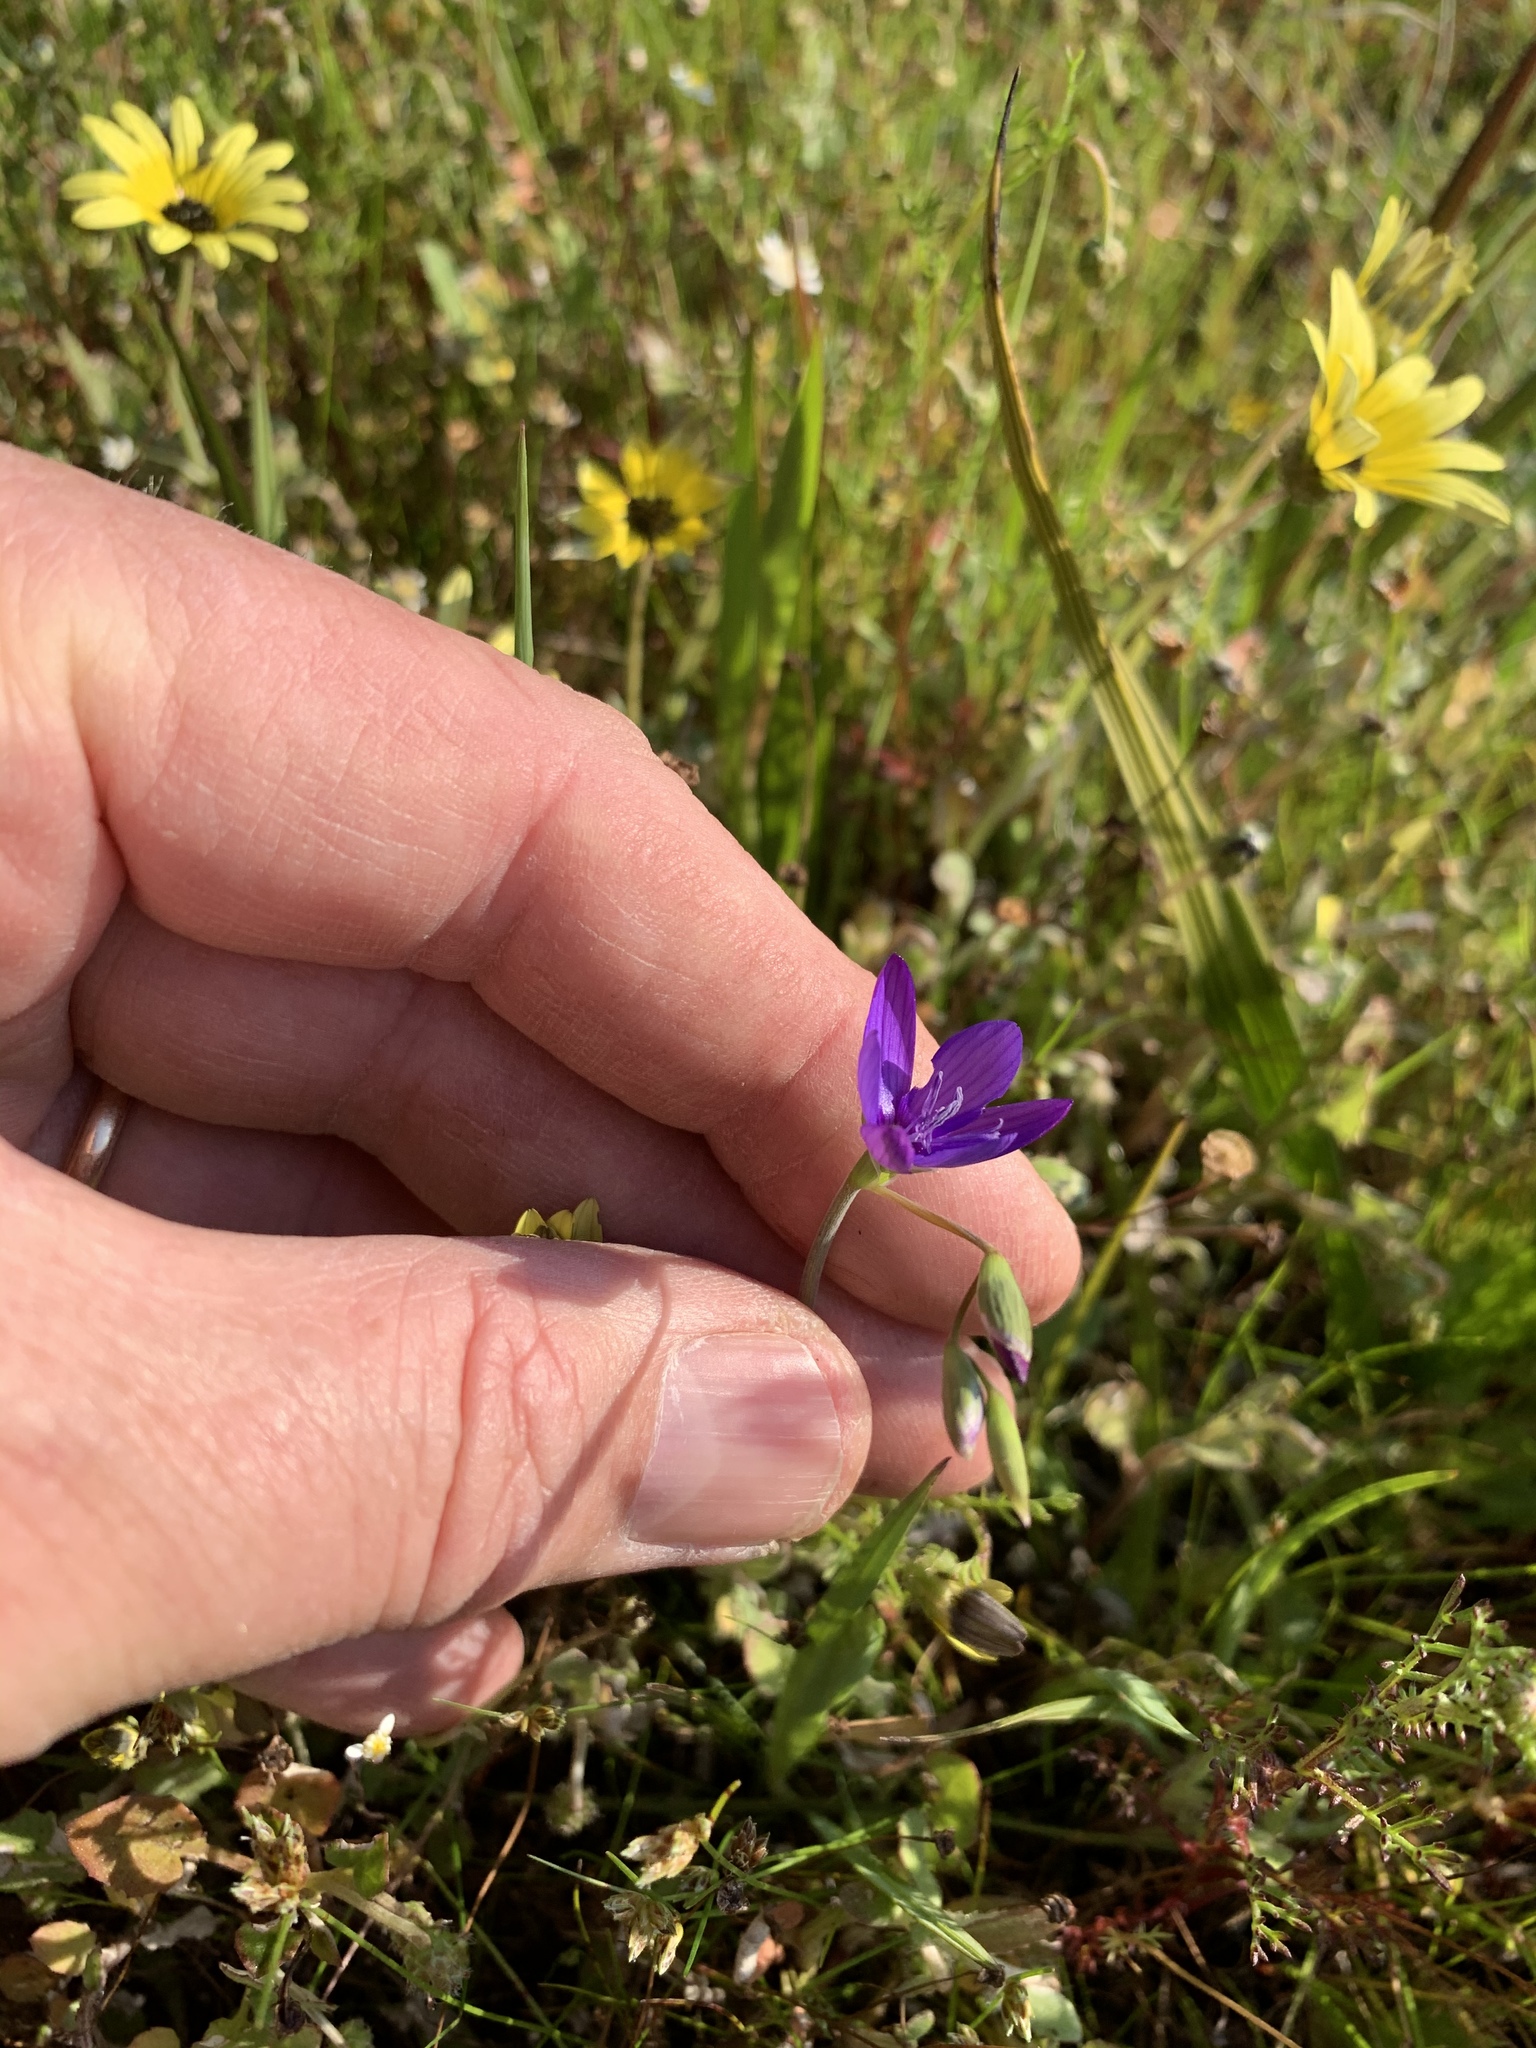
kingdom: Plantae
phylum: Tracheophyta
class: Liliopsida
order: Asparagales
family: Iridaceae
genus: Geissorhiza
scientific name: Geissorhiza aspera
